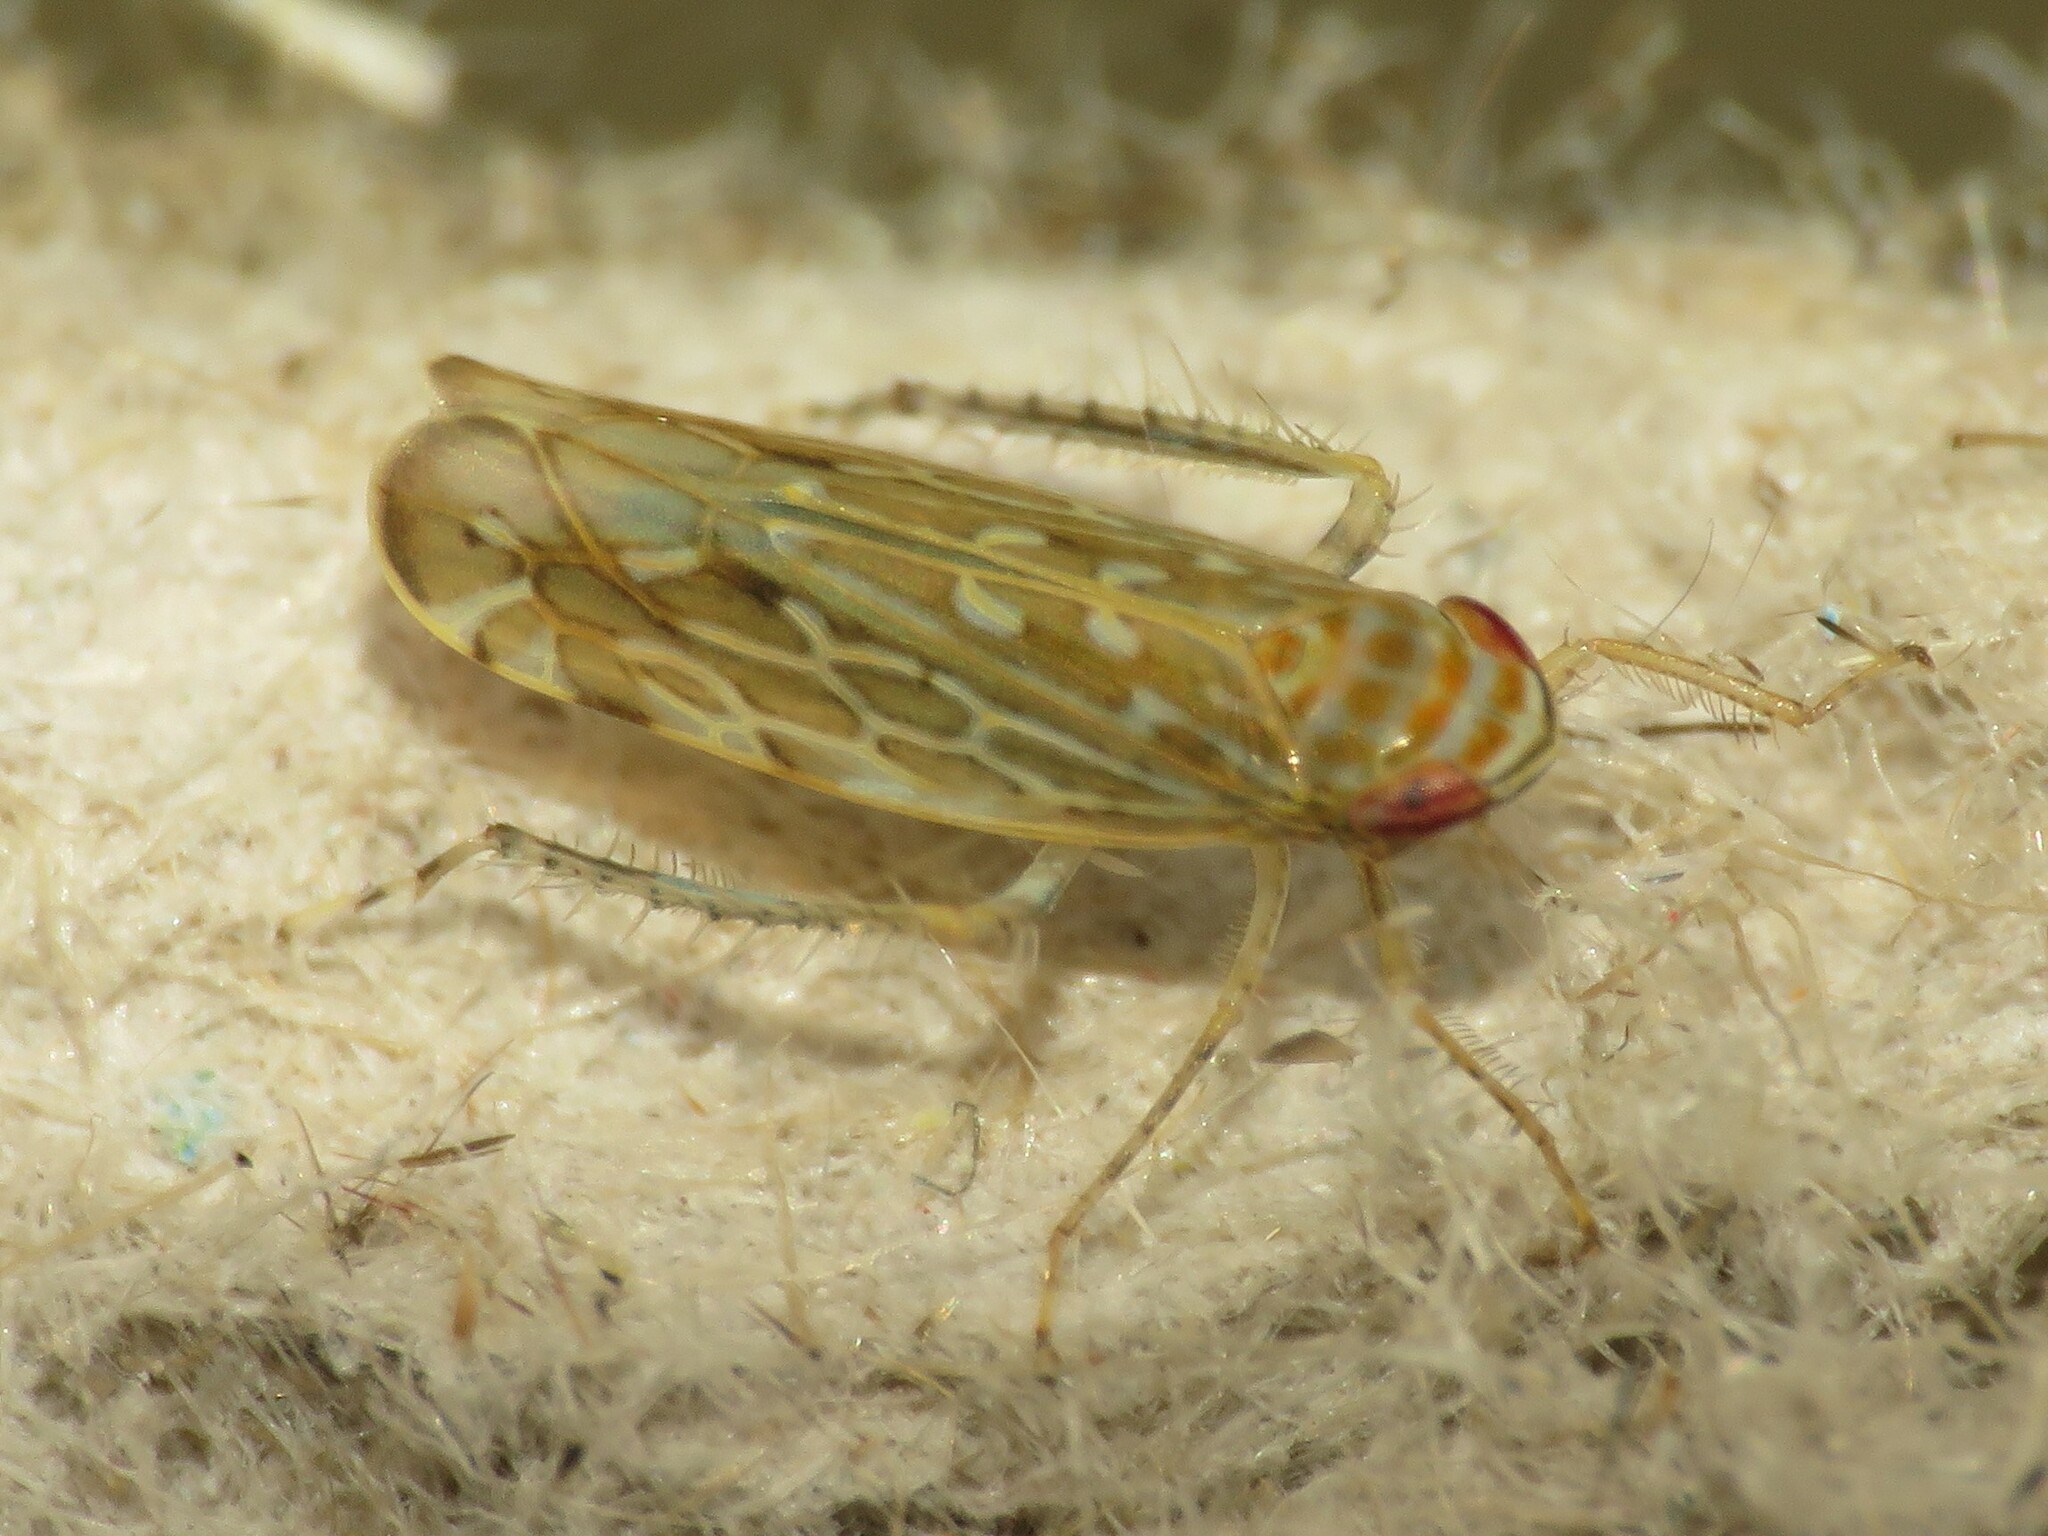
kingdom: Animalia
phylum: Arthropoda
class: Insecta
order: Hemiptera
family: Cicadellidae
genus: Paralimnus
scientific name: Paralimnus phragmitis
